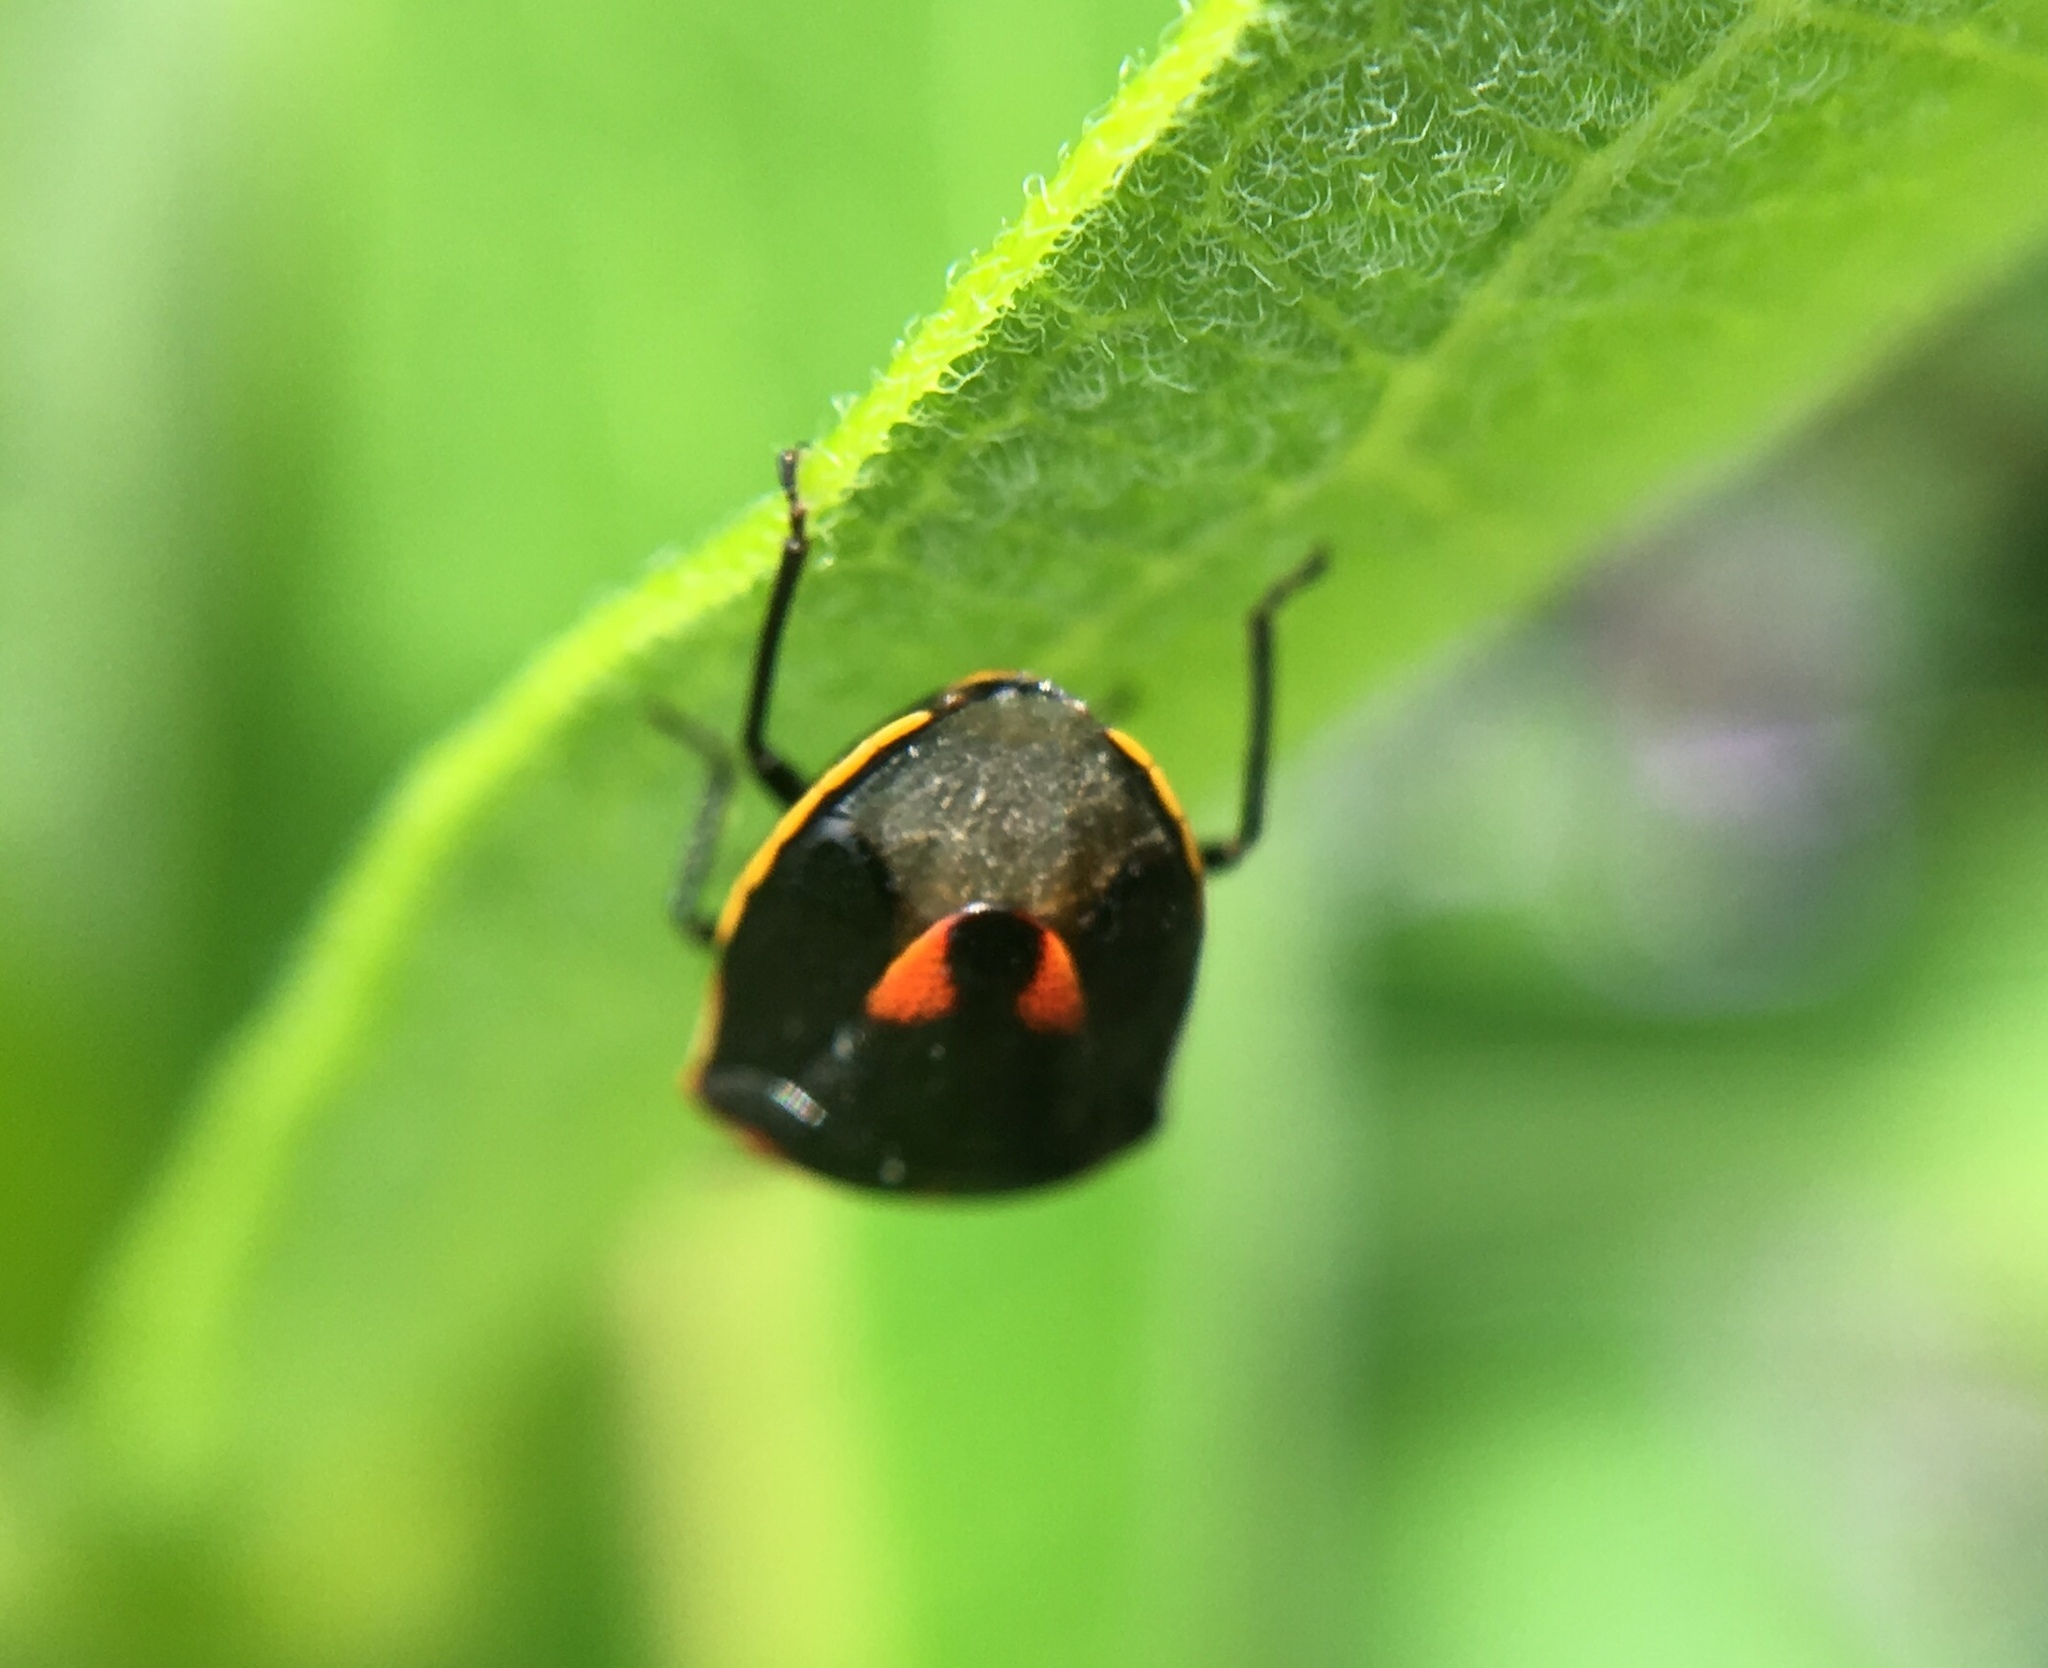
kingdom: Animalia
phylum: Arthropoda
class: Insecta
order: Hemiptera
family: Pentatomidae
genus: Cosmopepla
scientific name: Cosmopepla lintneriana
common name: Twice-stabbed stink bug
